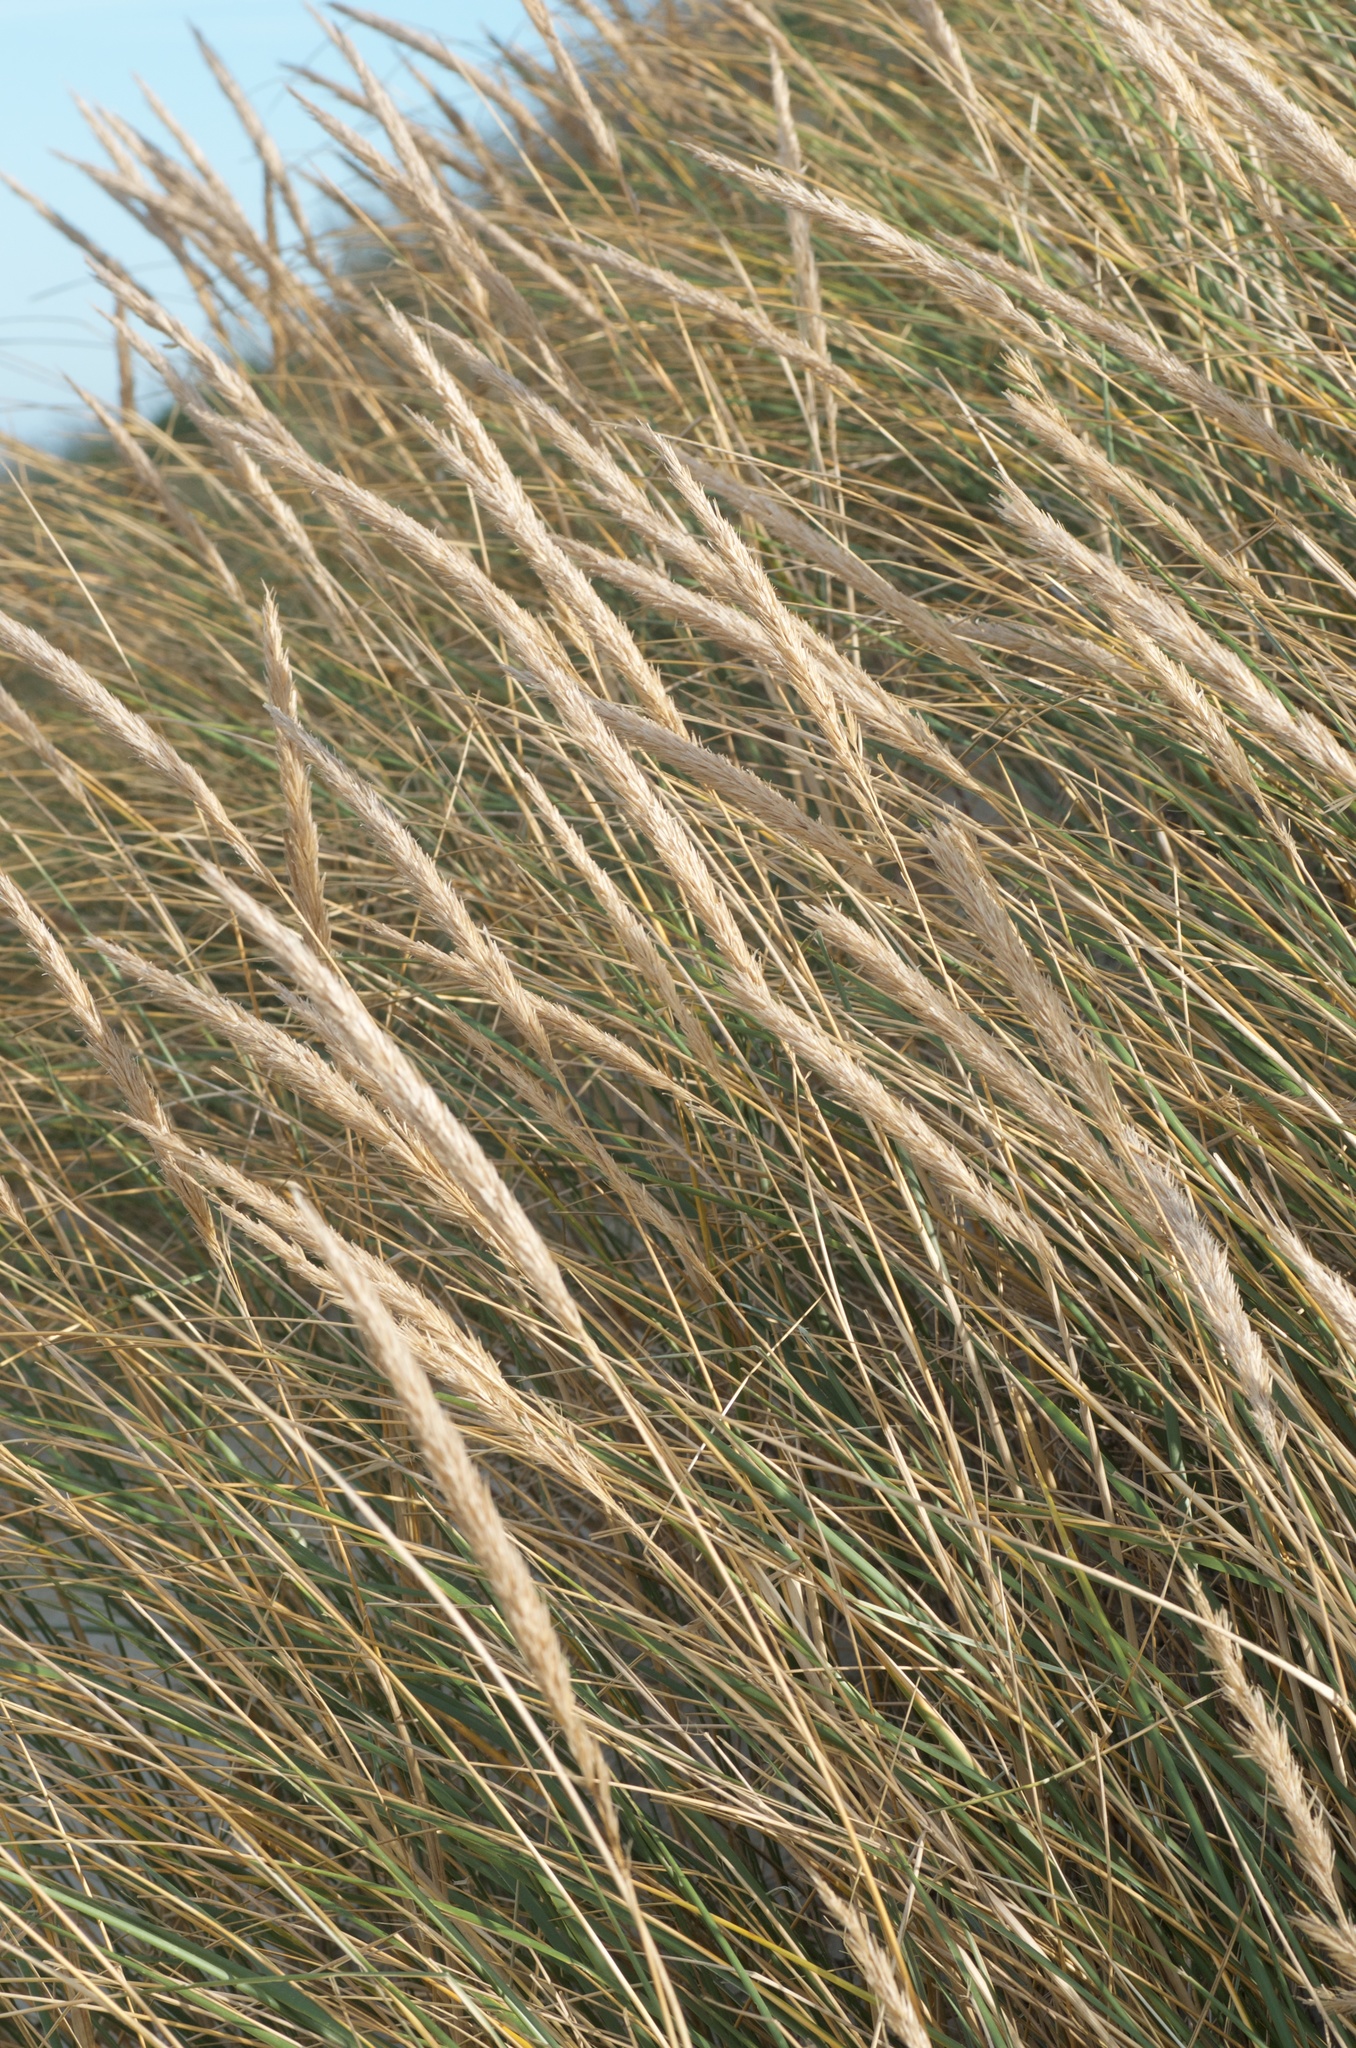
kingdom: Plantae
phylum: Tracheophyta
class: Liliopsida
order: Poales
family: Poaceae
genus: Calamagrostis
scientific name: Calamagrostis arenaria
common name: European beachgrass
